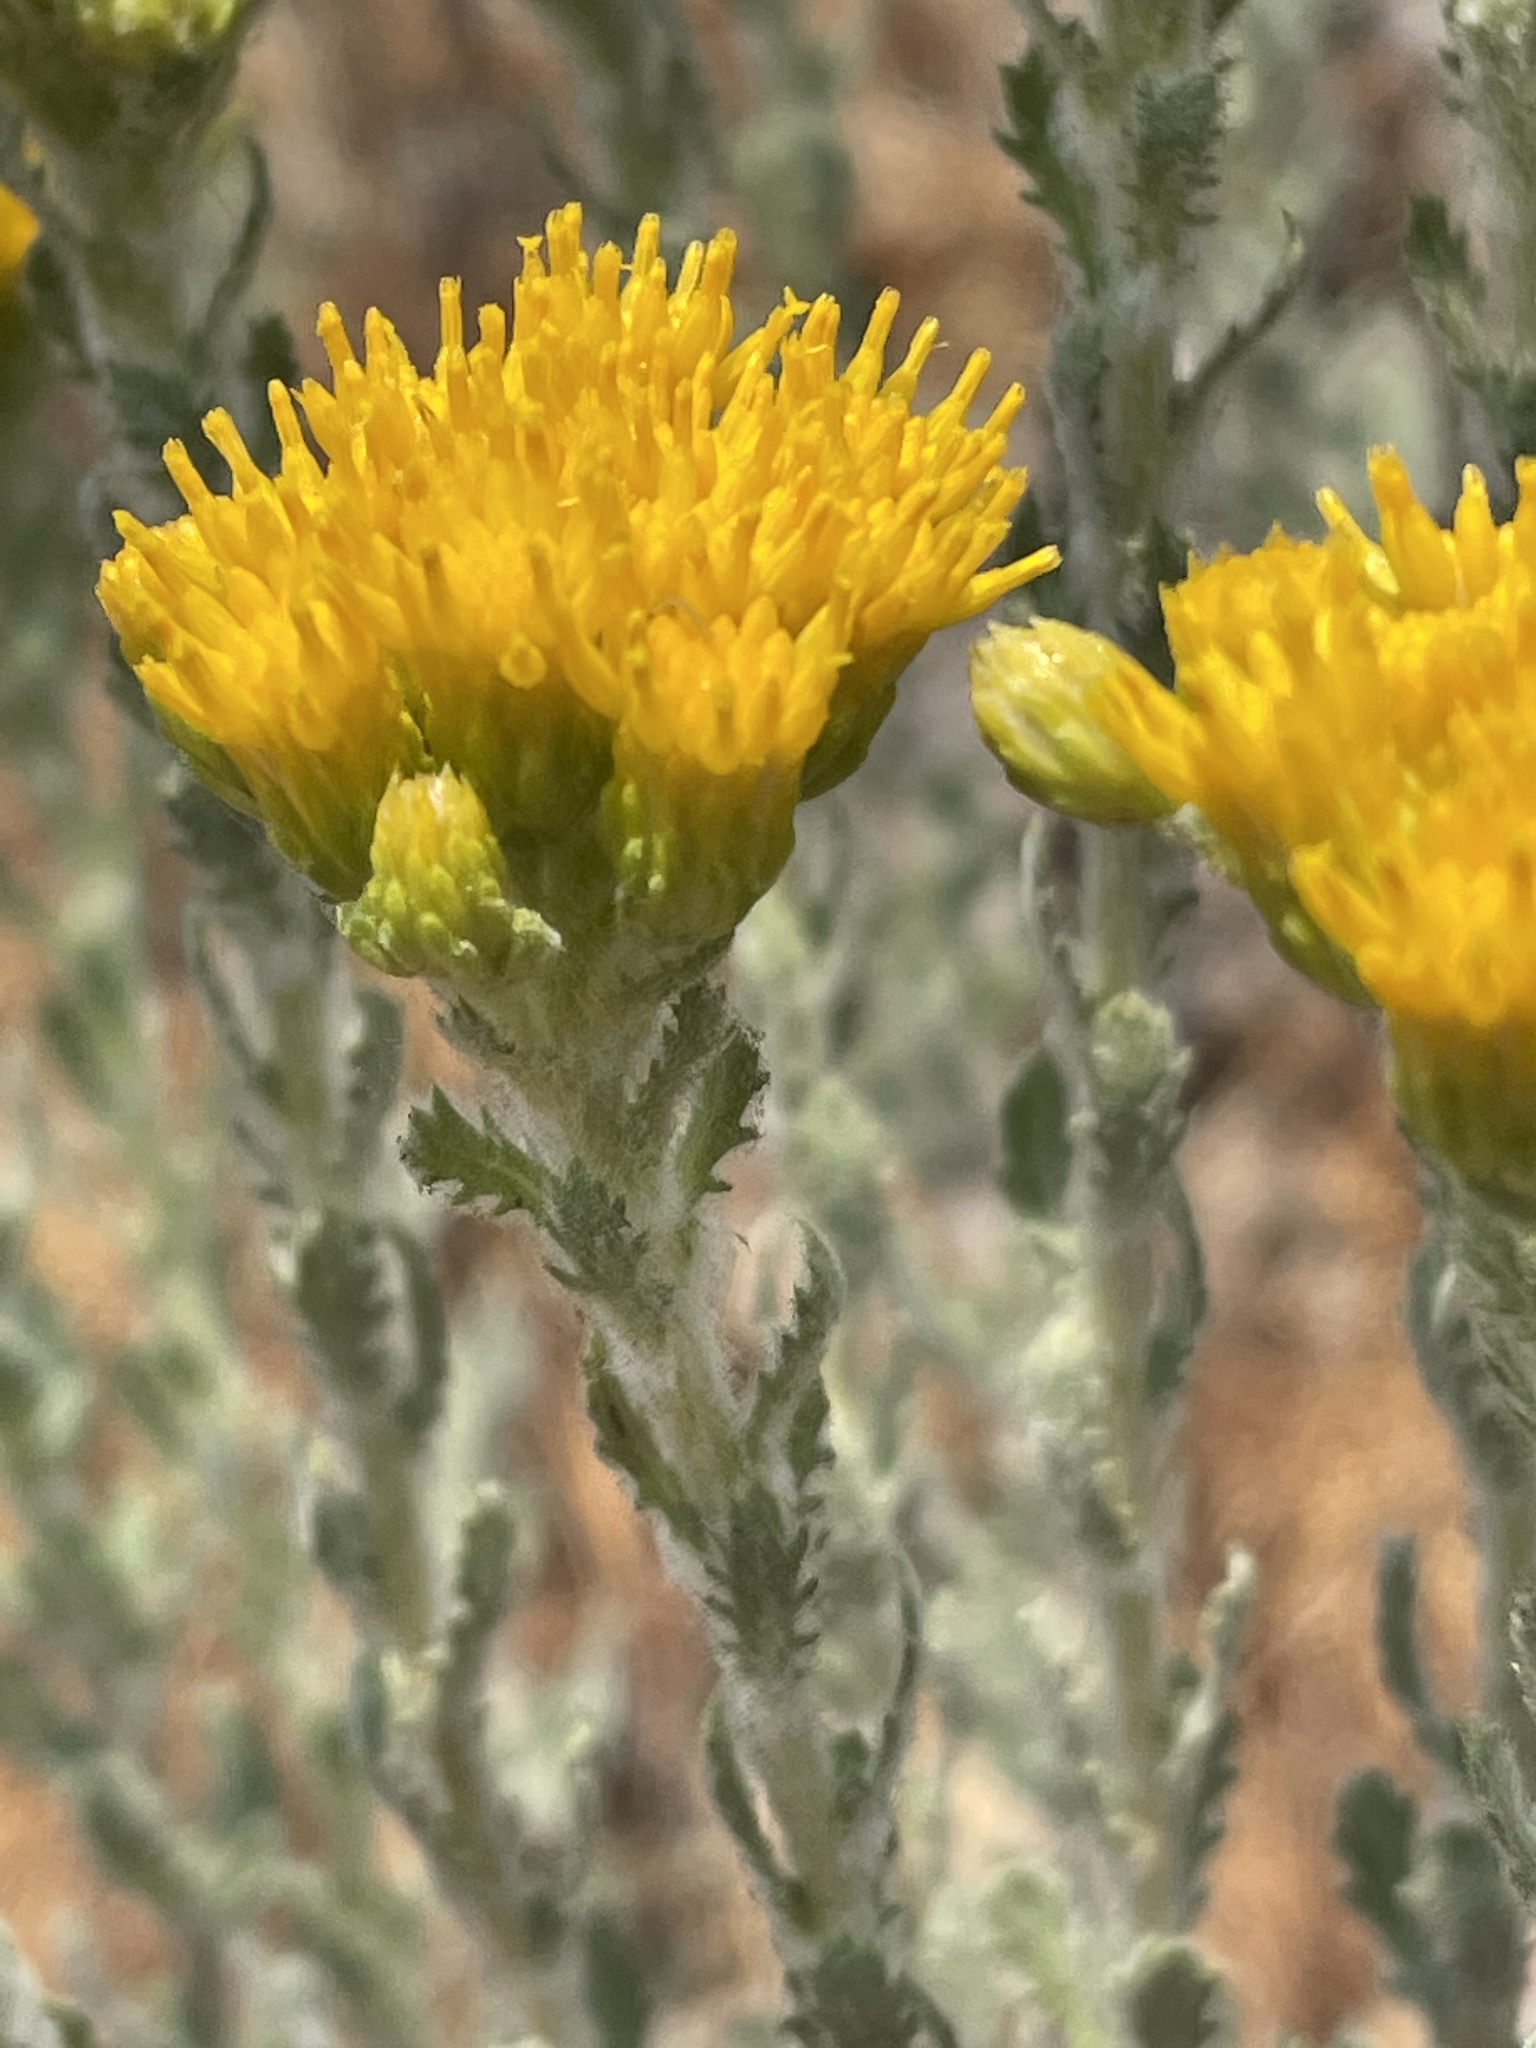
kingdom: Plantae
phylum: Tracheophyta
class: Magnoliopsida
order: Asterales
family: Asteraceae
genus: Isocoma
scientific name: Isocoma menziesii
